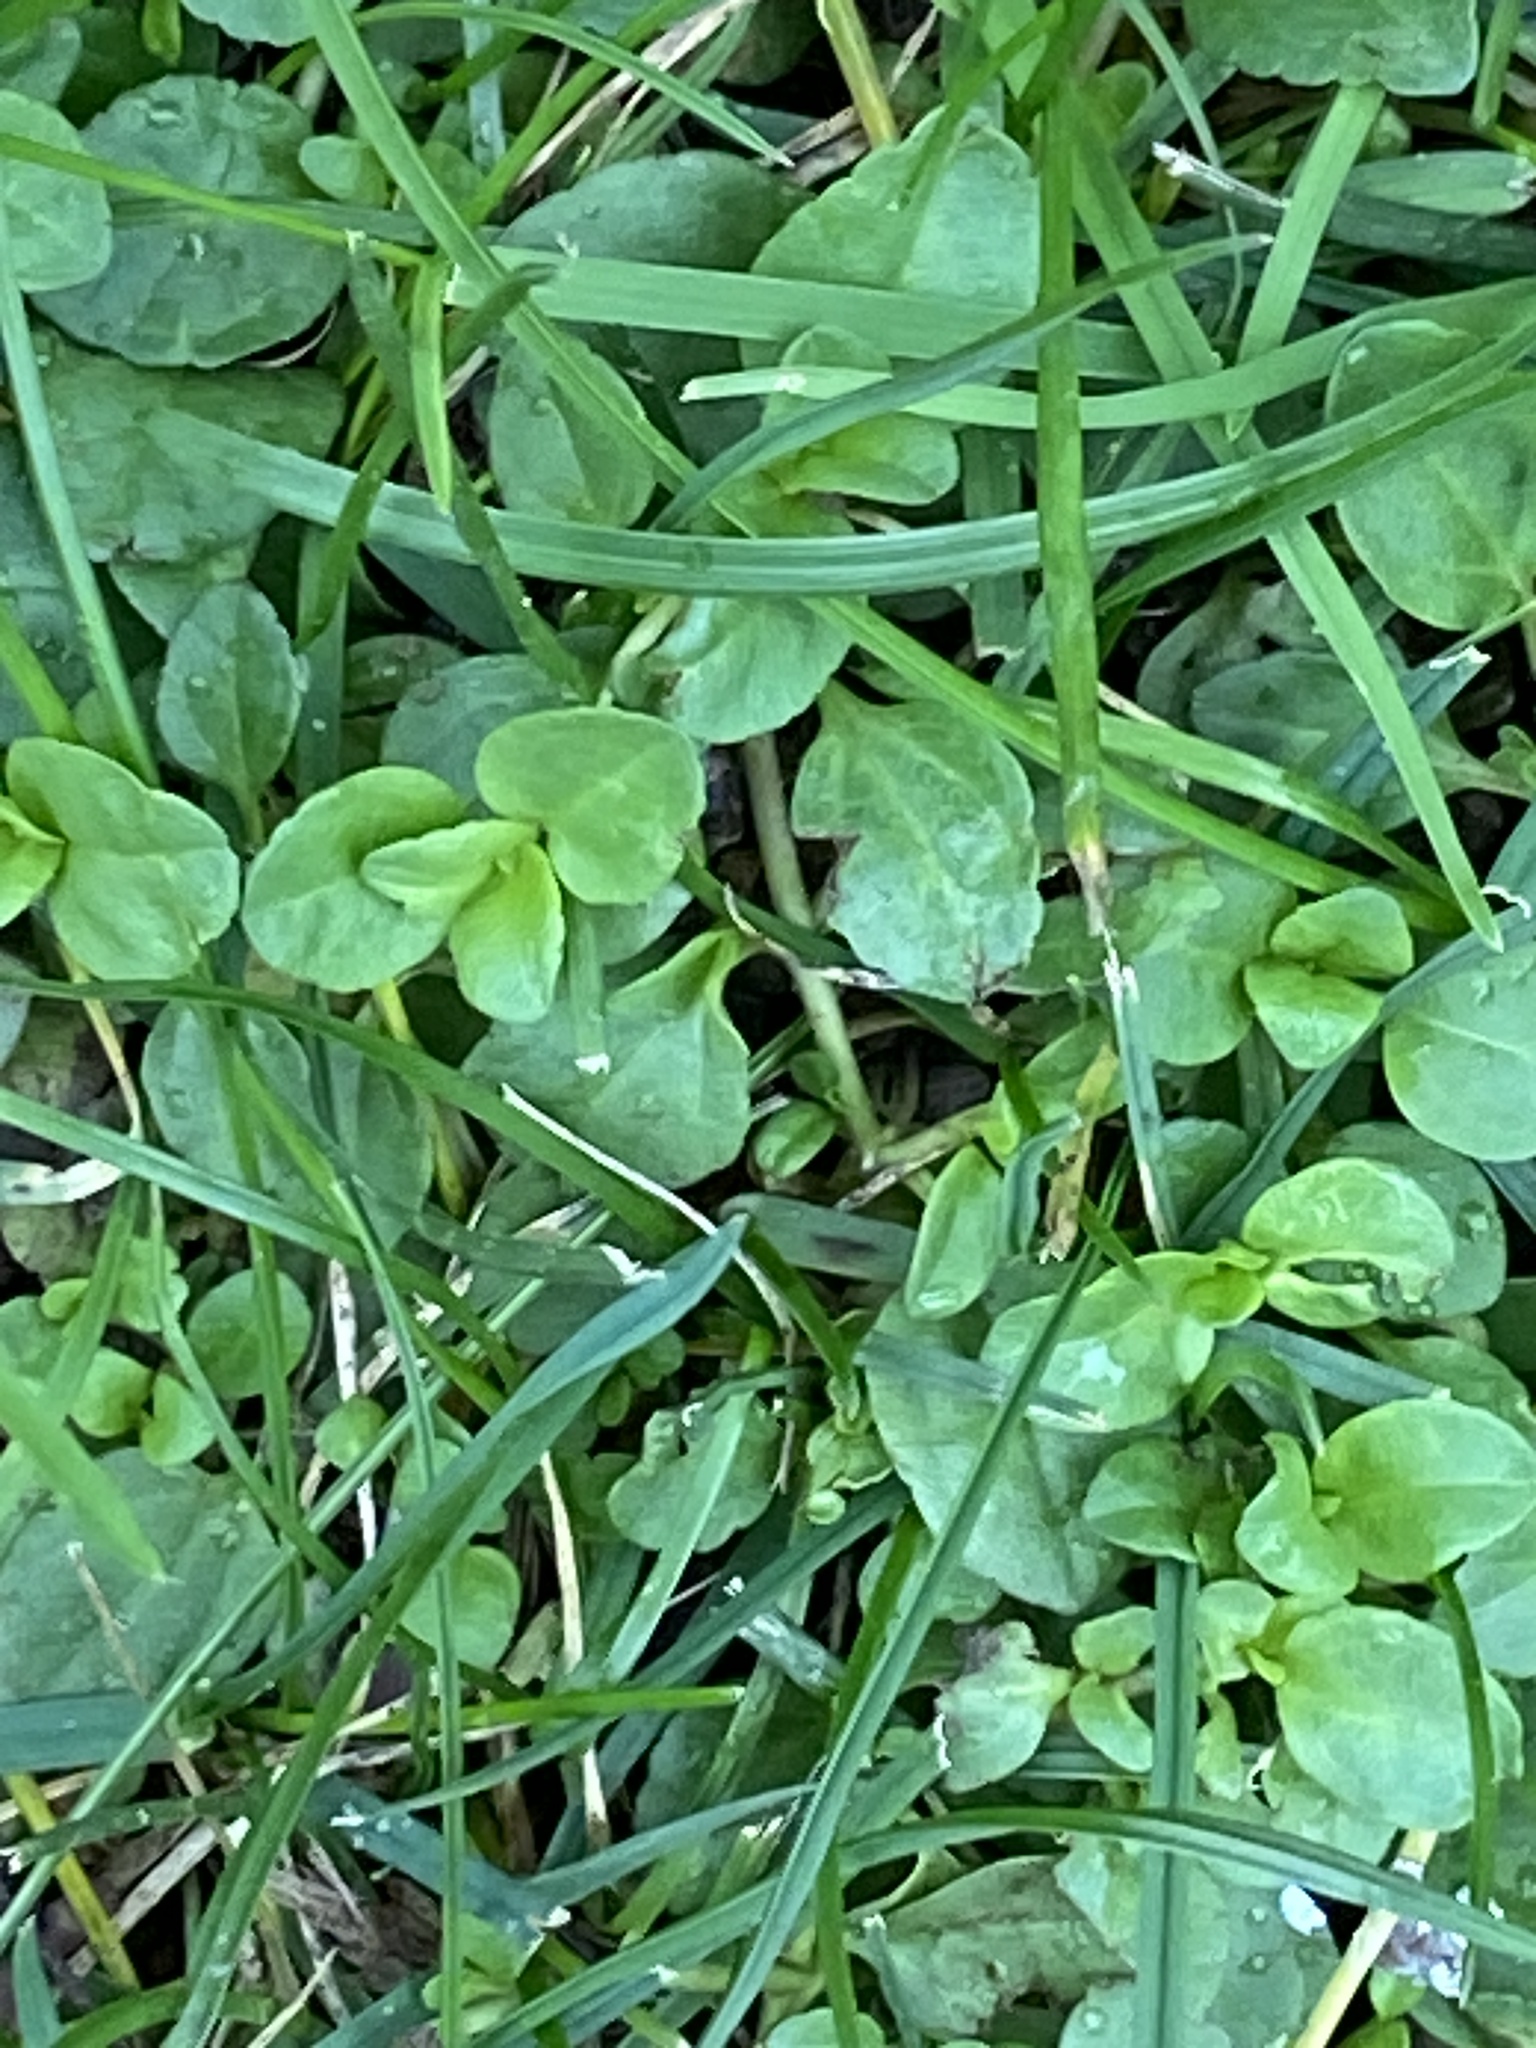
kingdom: Plantae
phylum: Tracheophyta
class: Magnoliopsida
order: Lamiales
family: Plantaginaceae
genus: Veronica
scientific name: Veronica serpyllifolia
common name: Thyme-leaved speedwell
